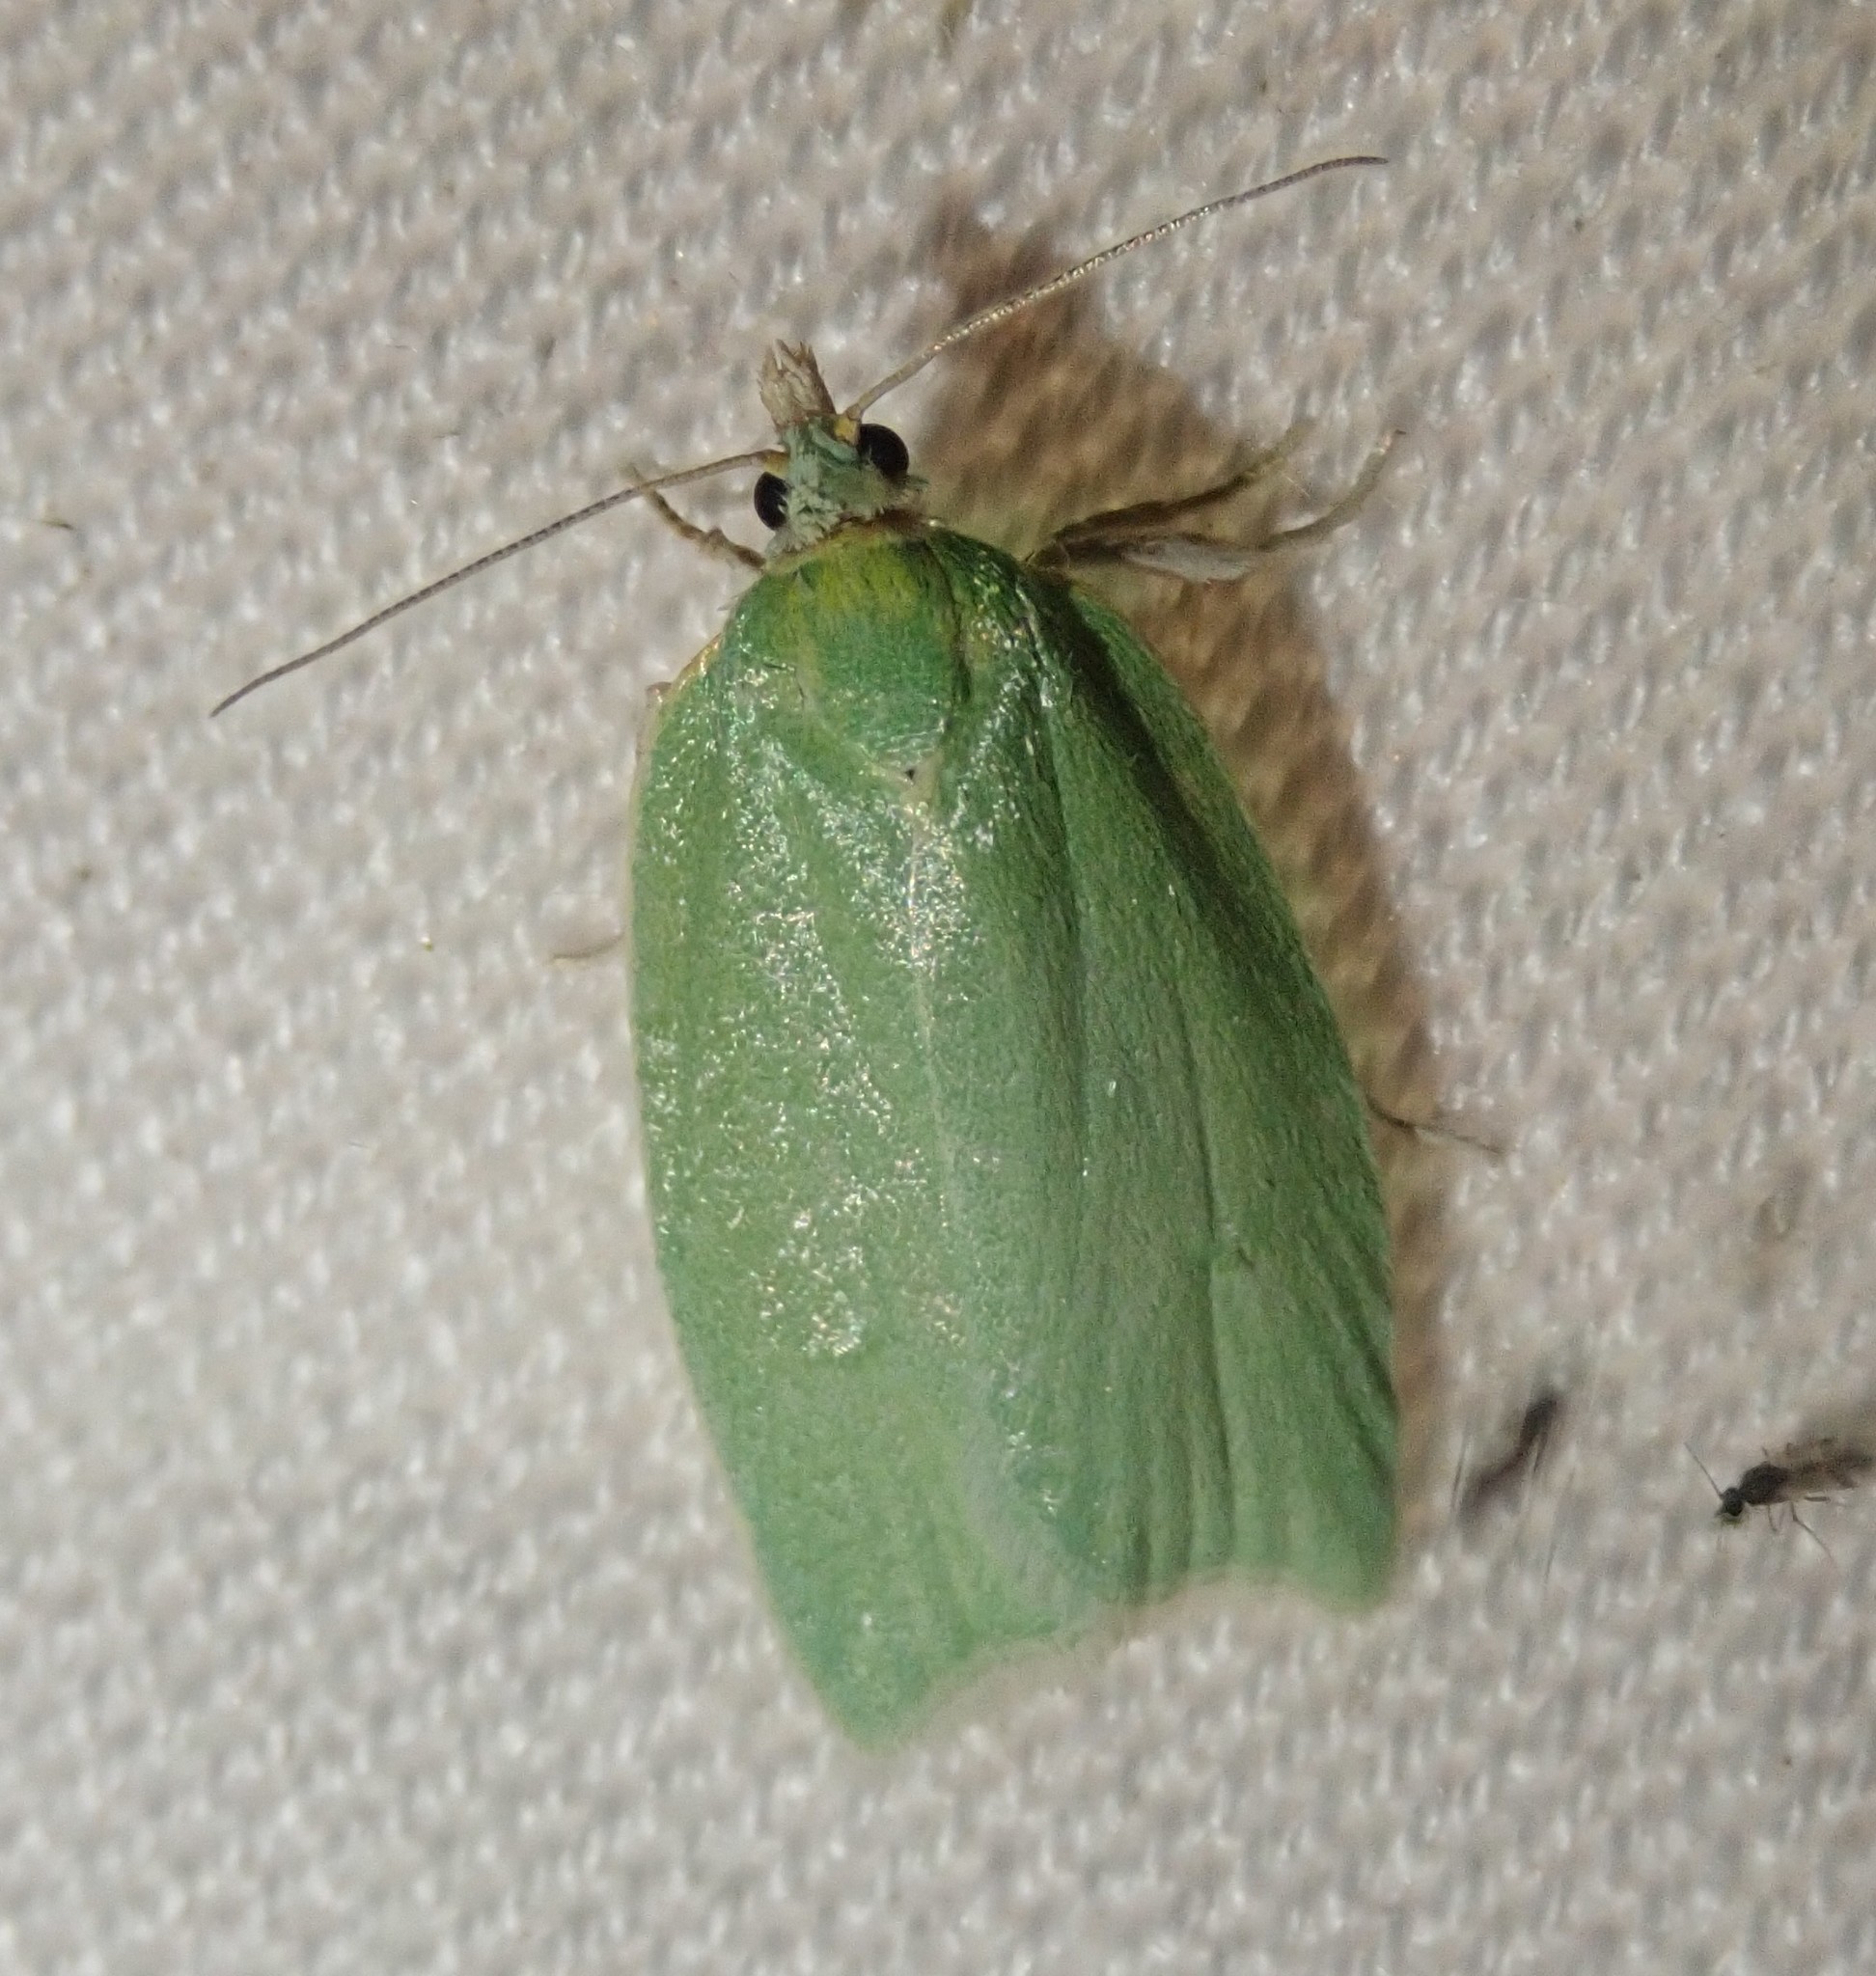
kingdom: Animalia
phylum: Arthropoda
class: Insecta
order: Lepidoptera
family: Tortricidae
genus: Tortrix
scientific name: Tortrix viridana
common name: Green oak tortrix
